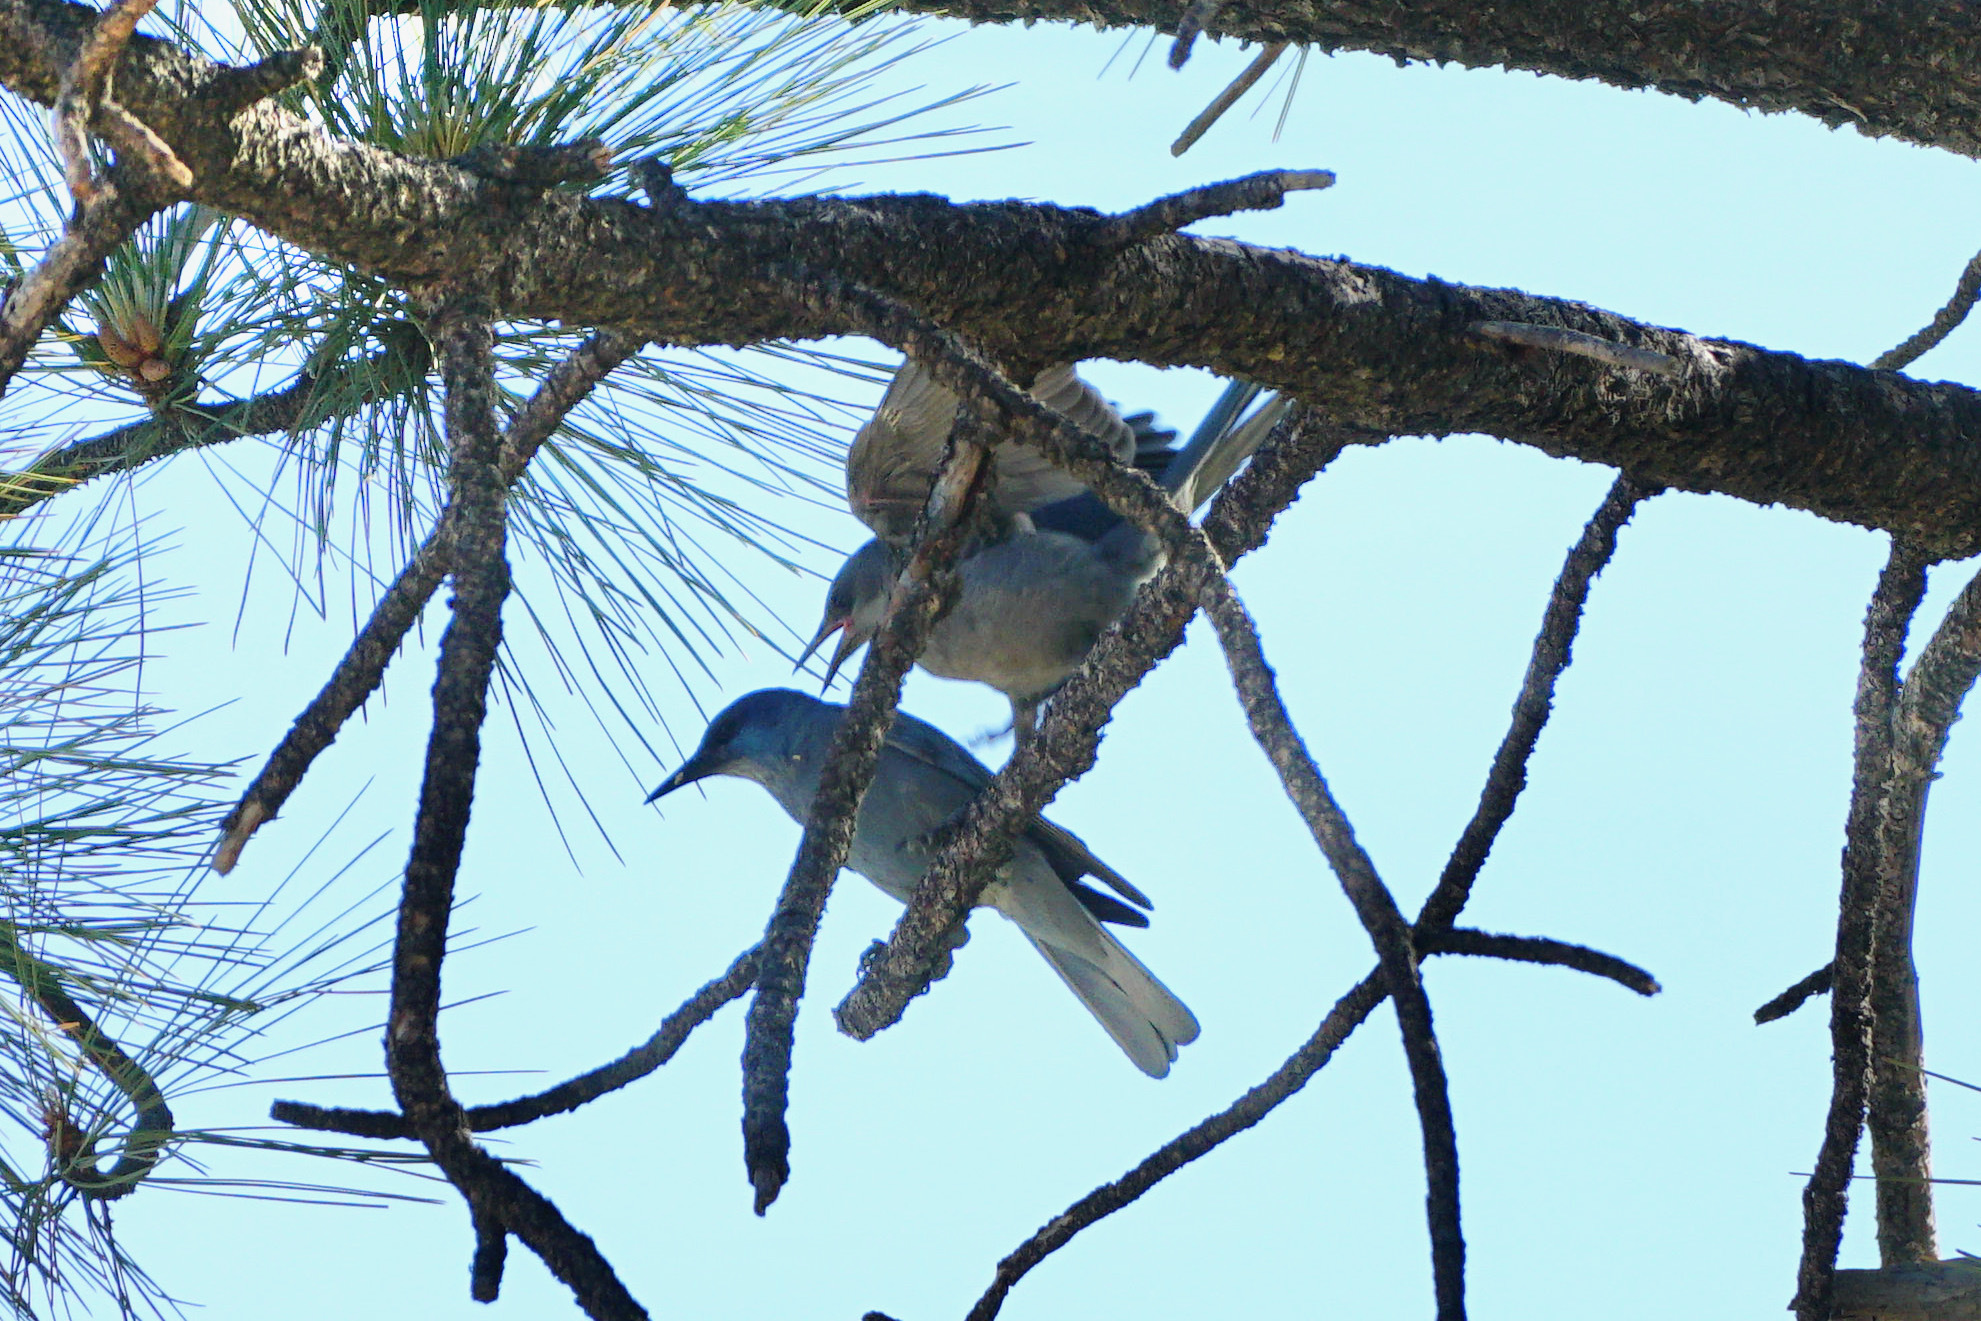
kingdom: Animalia
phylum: Chordata
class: Aves
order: Passeriformes
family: Corvidae
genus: Gymnorhinus
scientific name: Gymnorhinus cyanocephalus
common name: Pinyon jay
